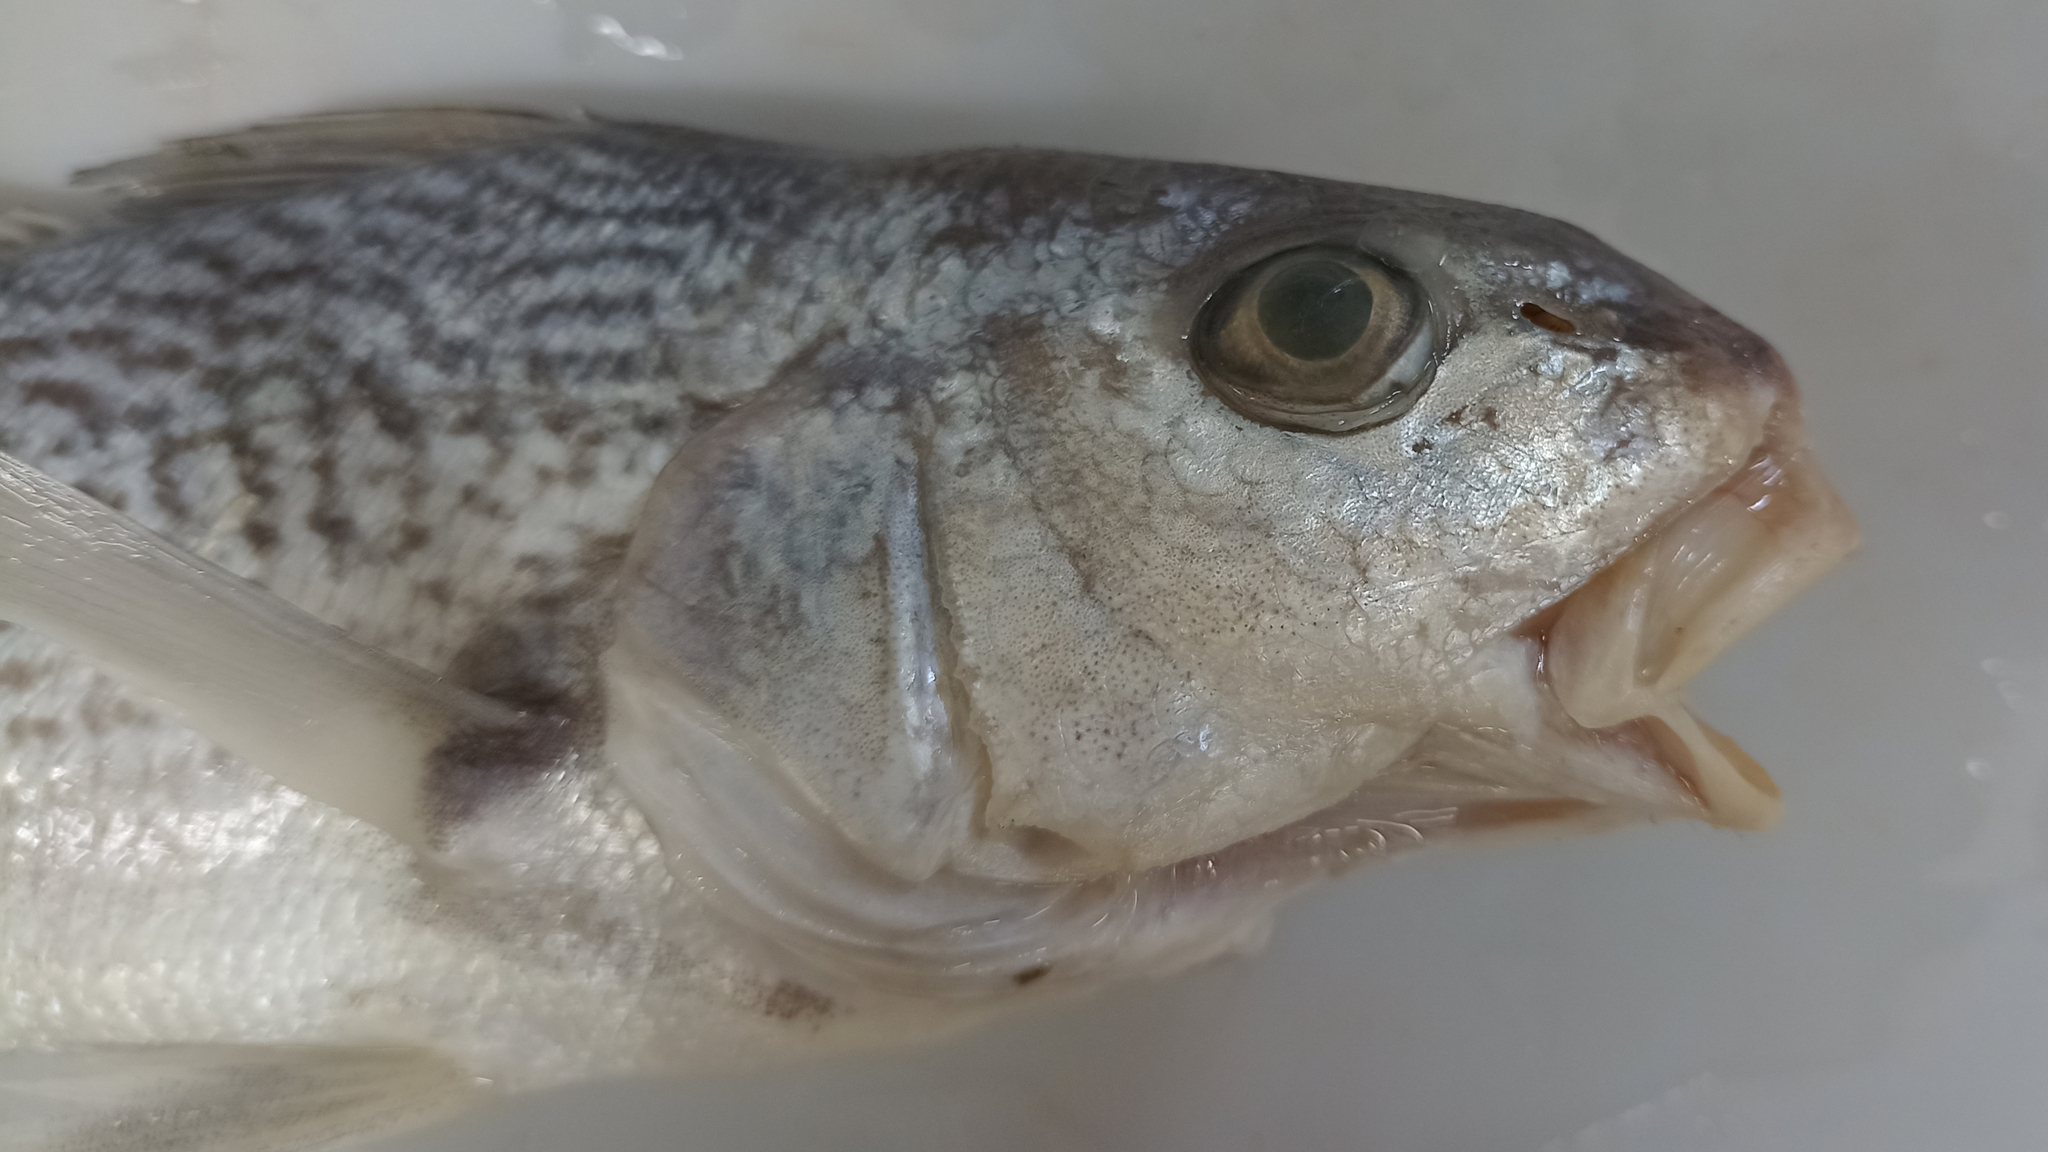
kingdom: Animalia
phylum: Chordata
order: Perciformes
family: Sciaenidae
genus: Micropogonias
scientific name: Micropogonias undulatus
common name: Atlantic croaker
